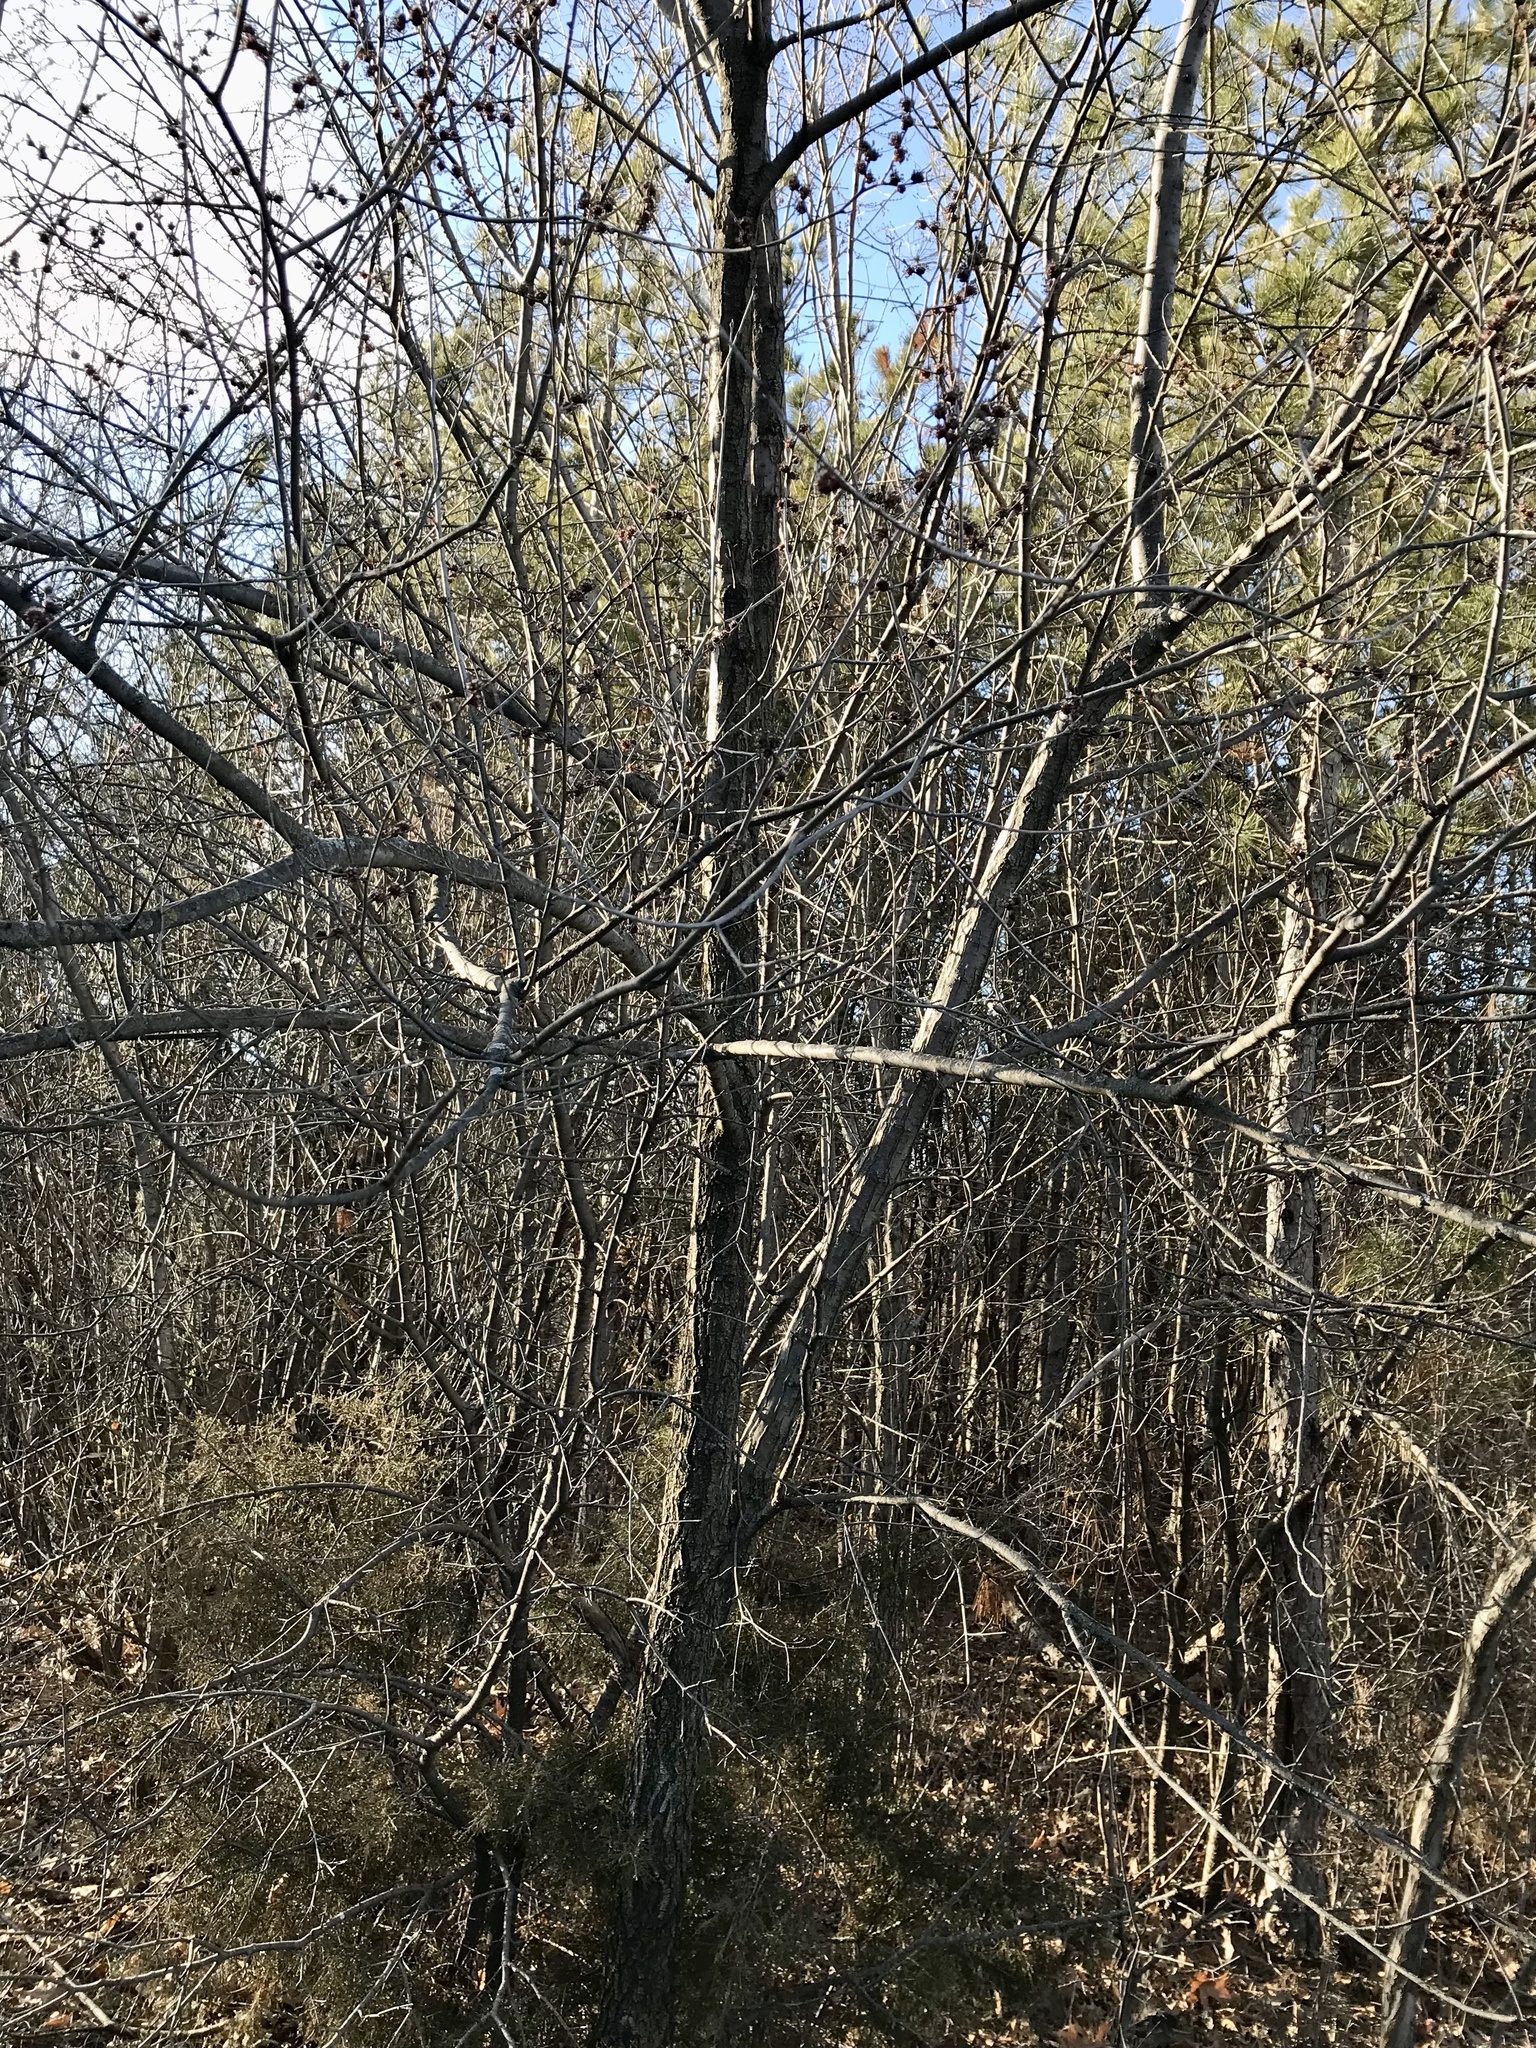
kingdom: Plantae
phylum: Tracheophyta
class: Magnoliopsida
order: Rosales
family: Ulmaceae
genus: Ulmus
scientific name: Ulmus pumila
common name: Siberian elm
